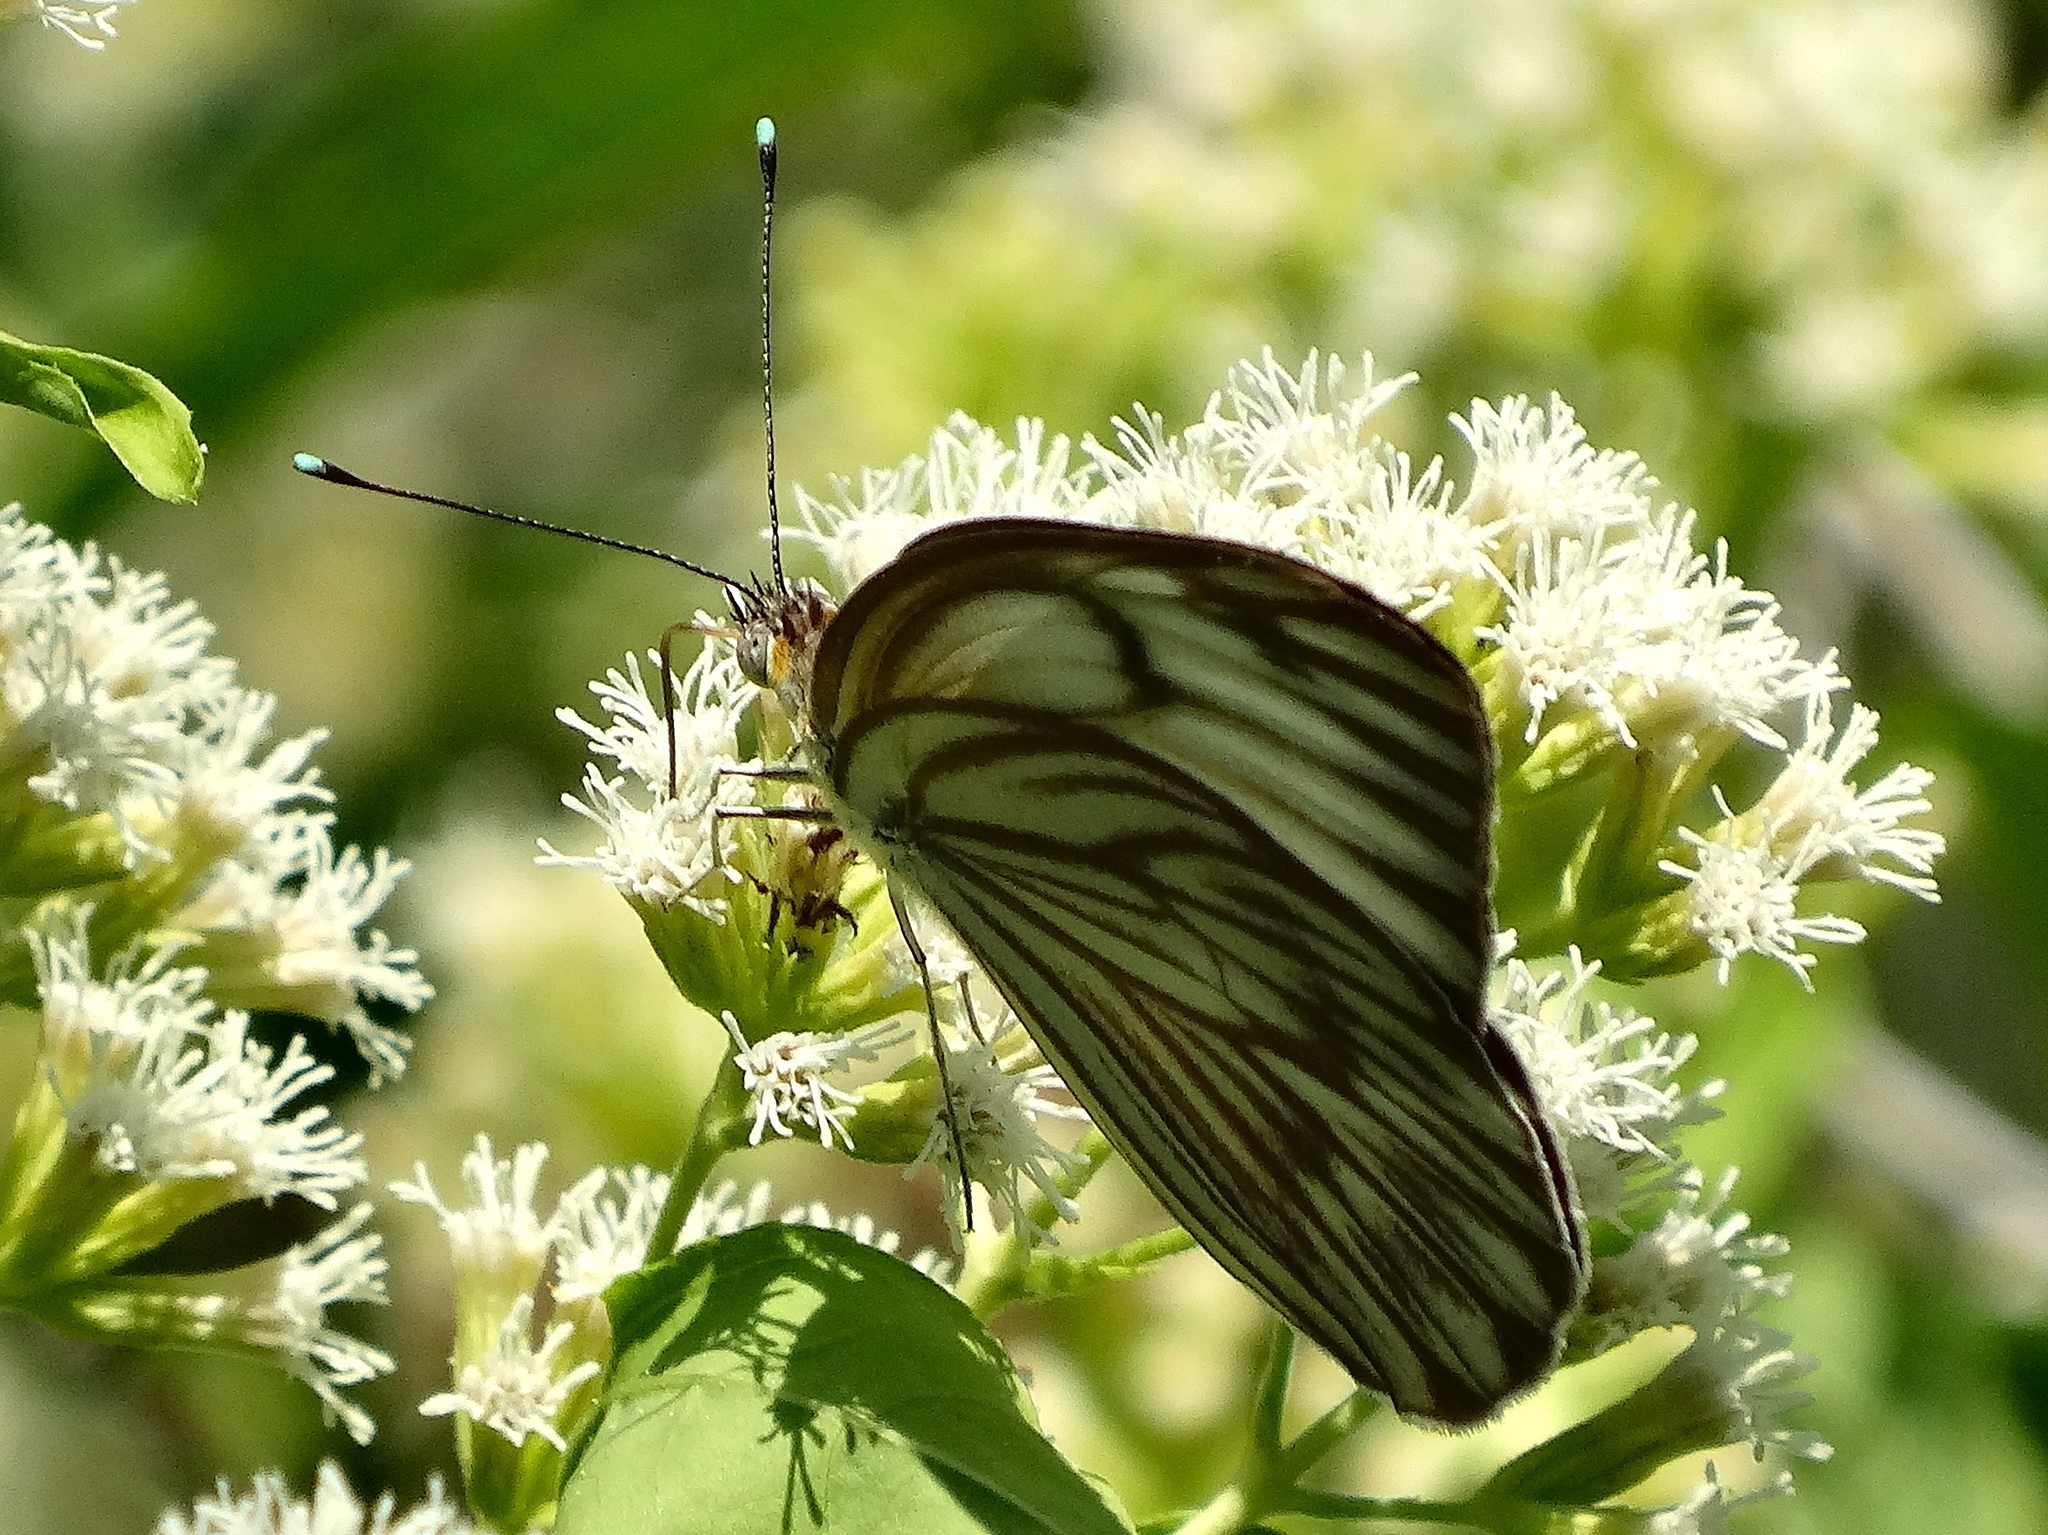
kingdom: Animalia
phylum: Arthropoda
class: Insecta
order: Lepidoptera
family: Pieridae
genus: Ascia
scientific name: Ascia monuste
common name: Great southern white
